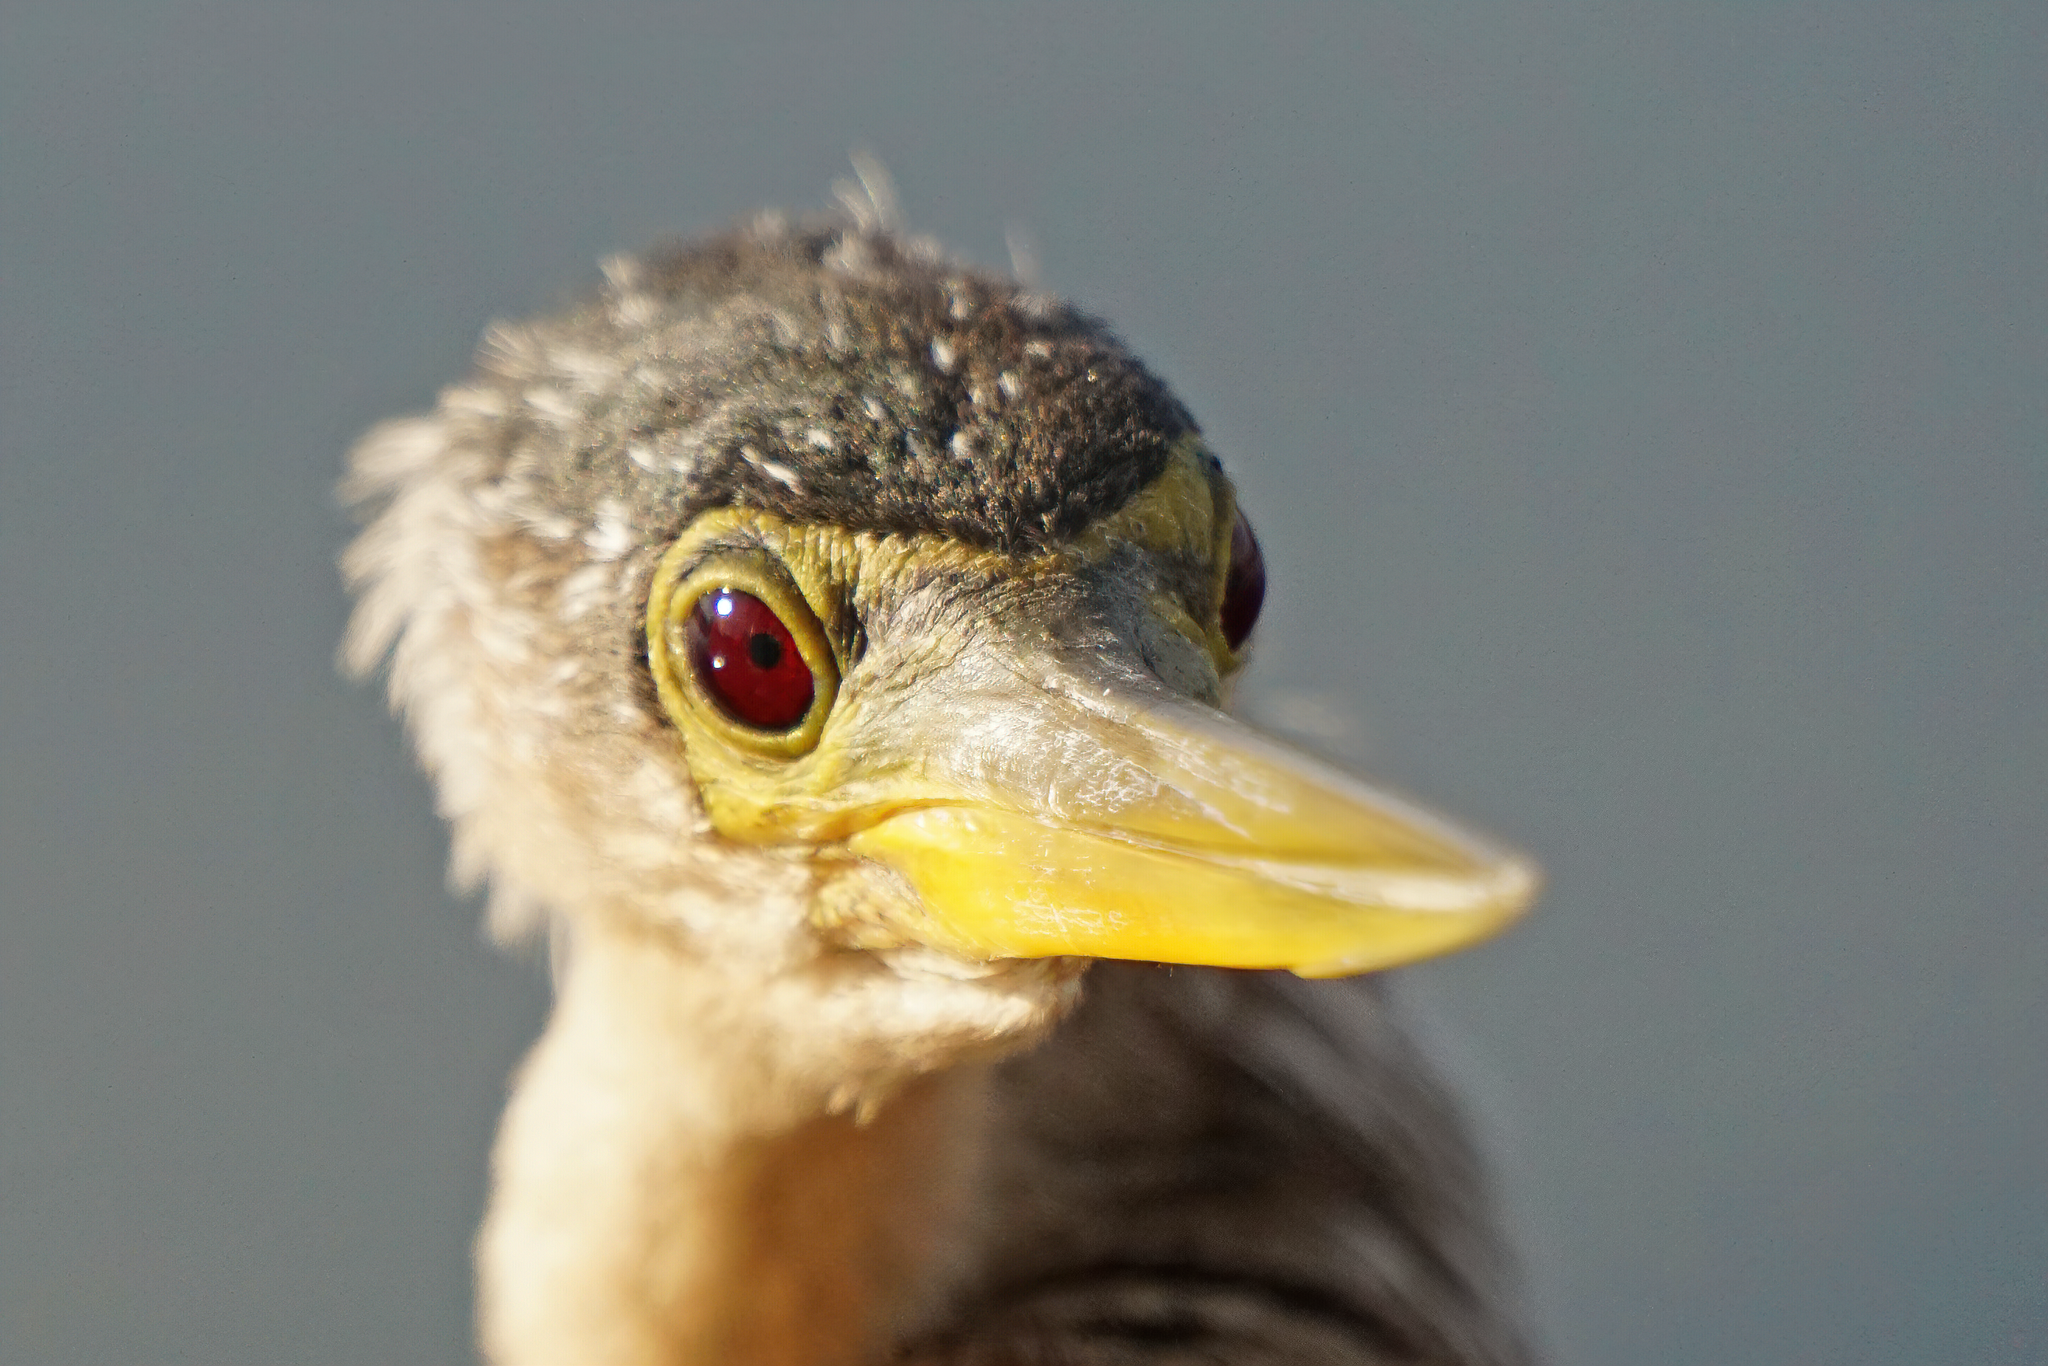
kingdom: Animalia
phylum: Chordata
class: Aves
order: Suliformes
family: Anhingidae
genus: Anhinga
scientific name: Anhinga anhinga
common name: Anhinga
